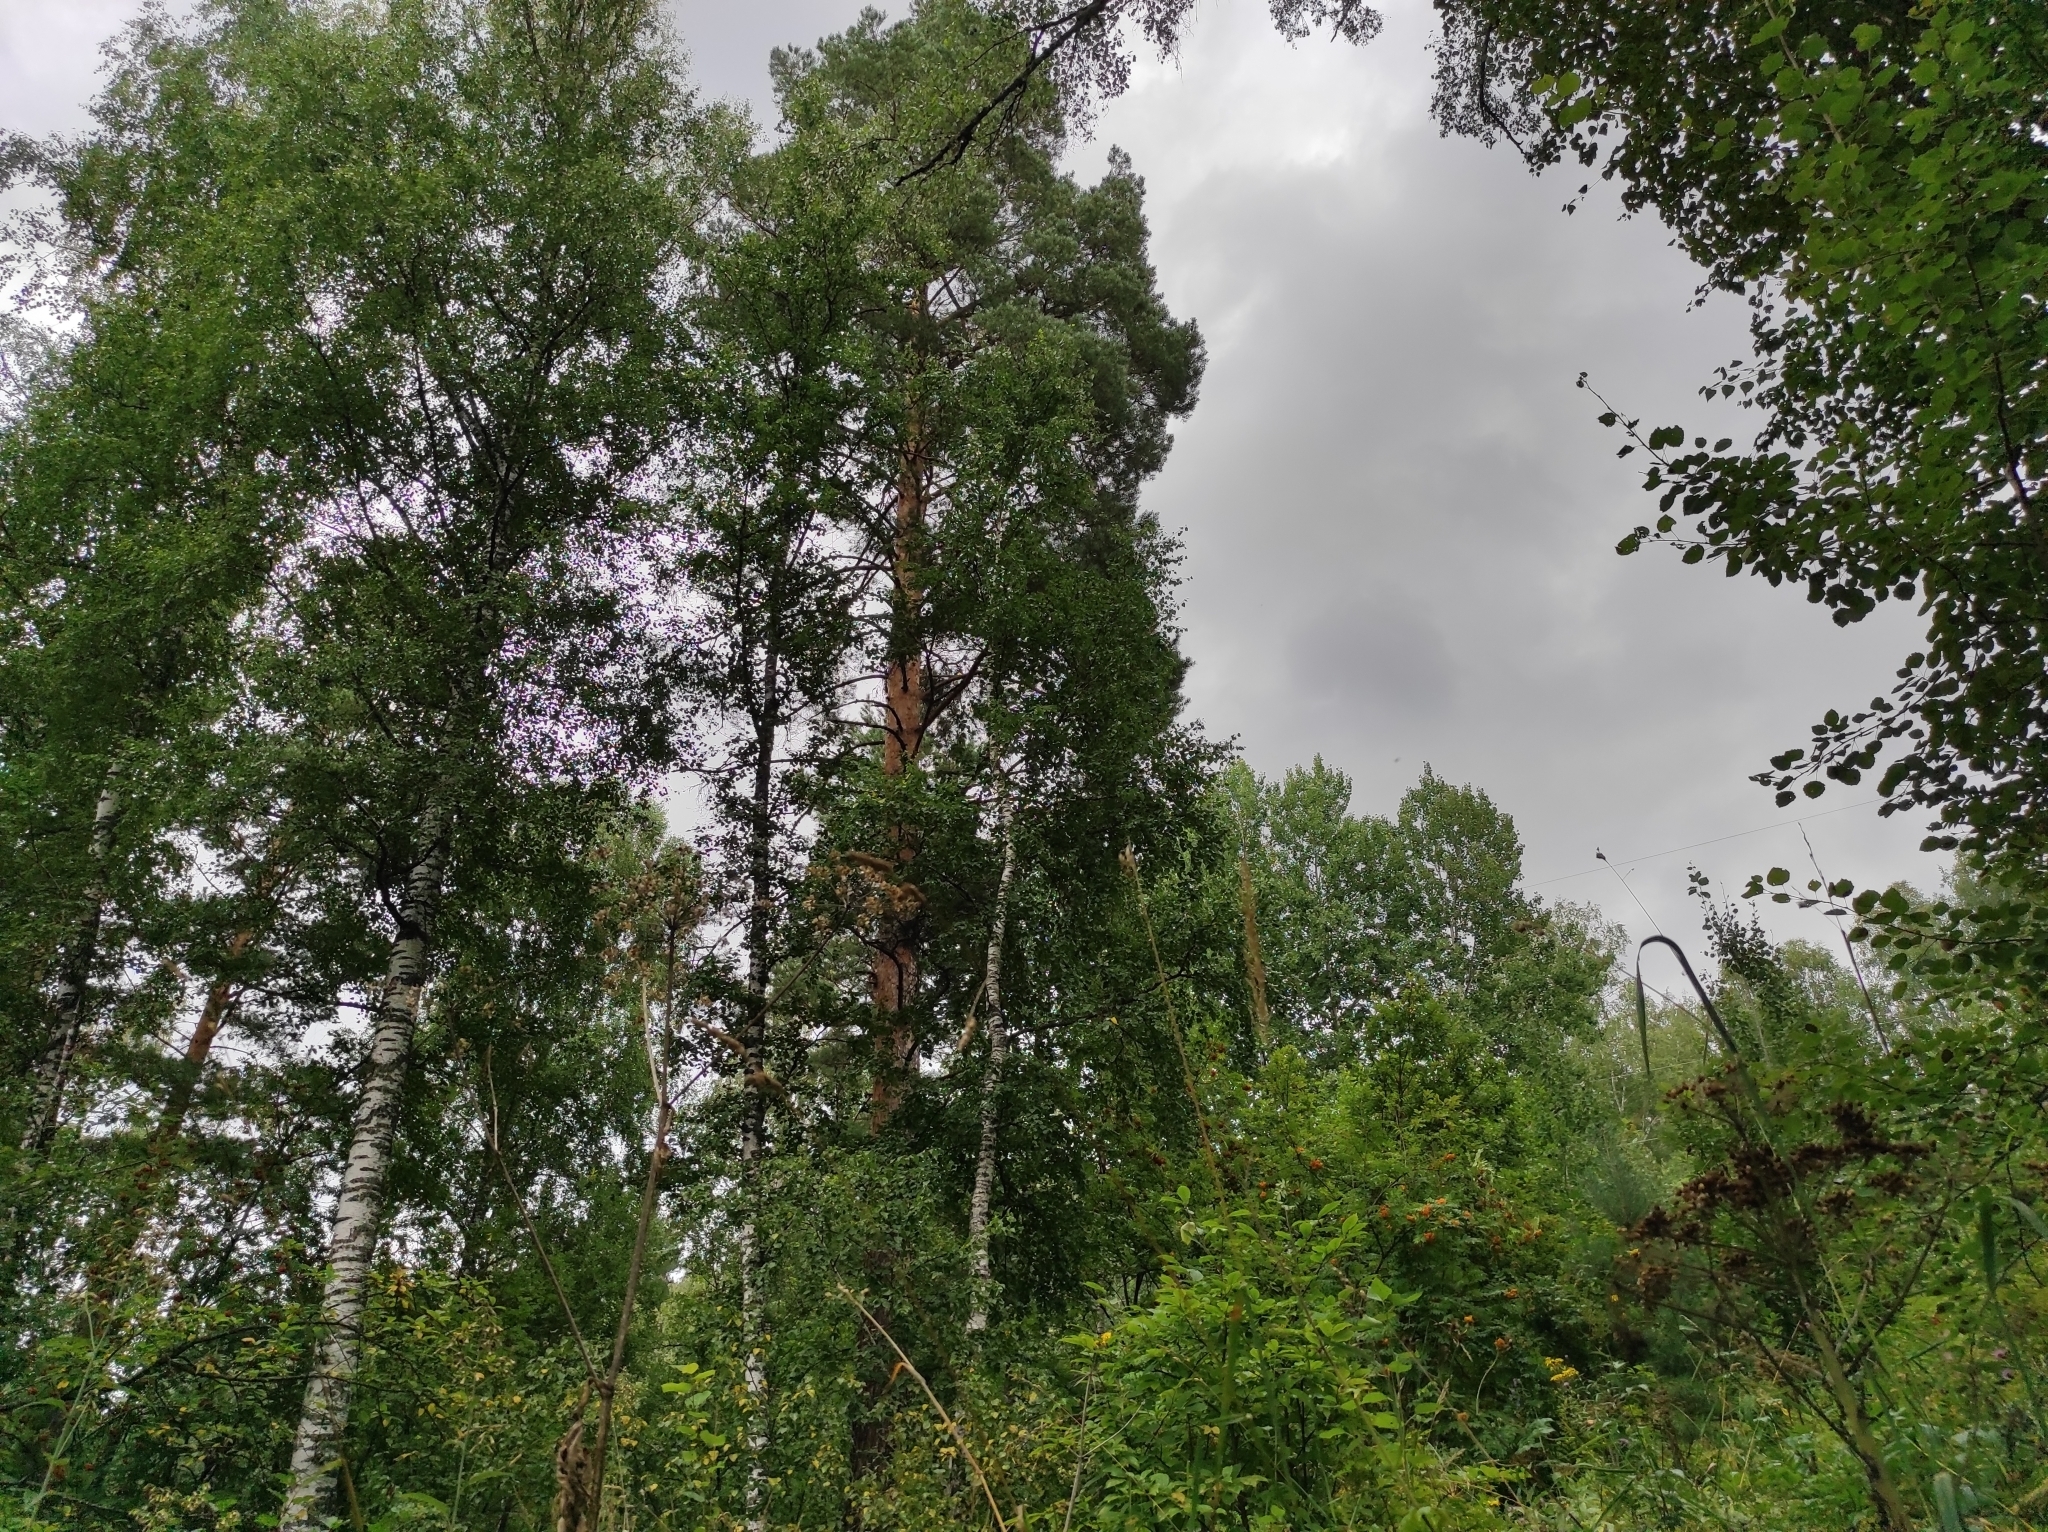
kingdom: Plantae
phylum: Tracheophyta
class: Pinopsida
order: Pinales
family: Pinaceae
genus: Pinus
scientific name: Pinus sylvestris
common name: Scots pine
